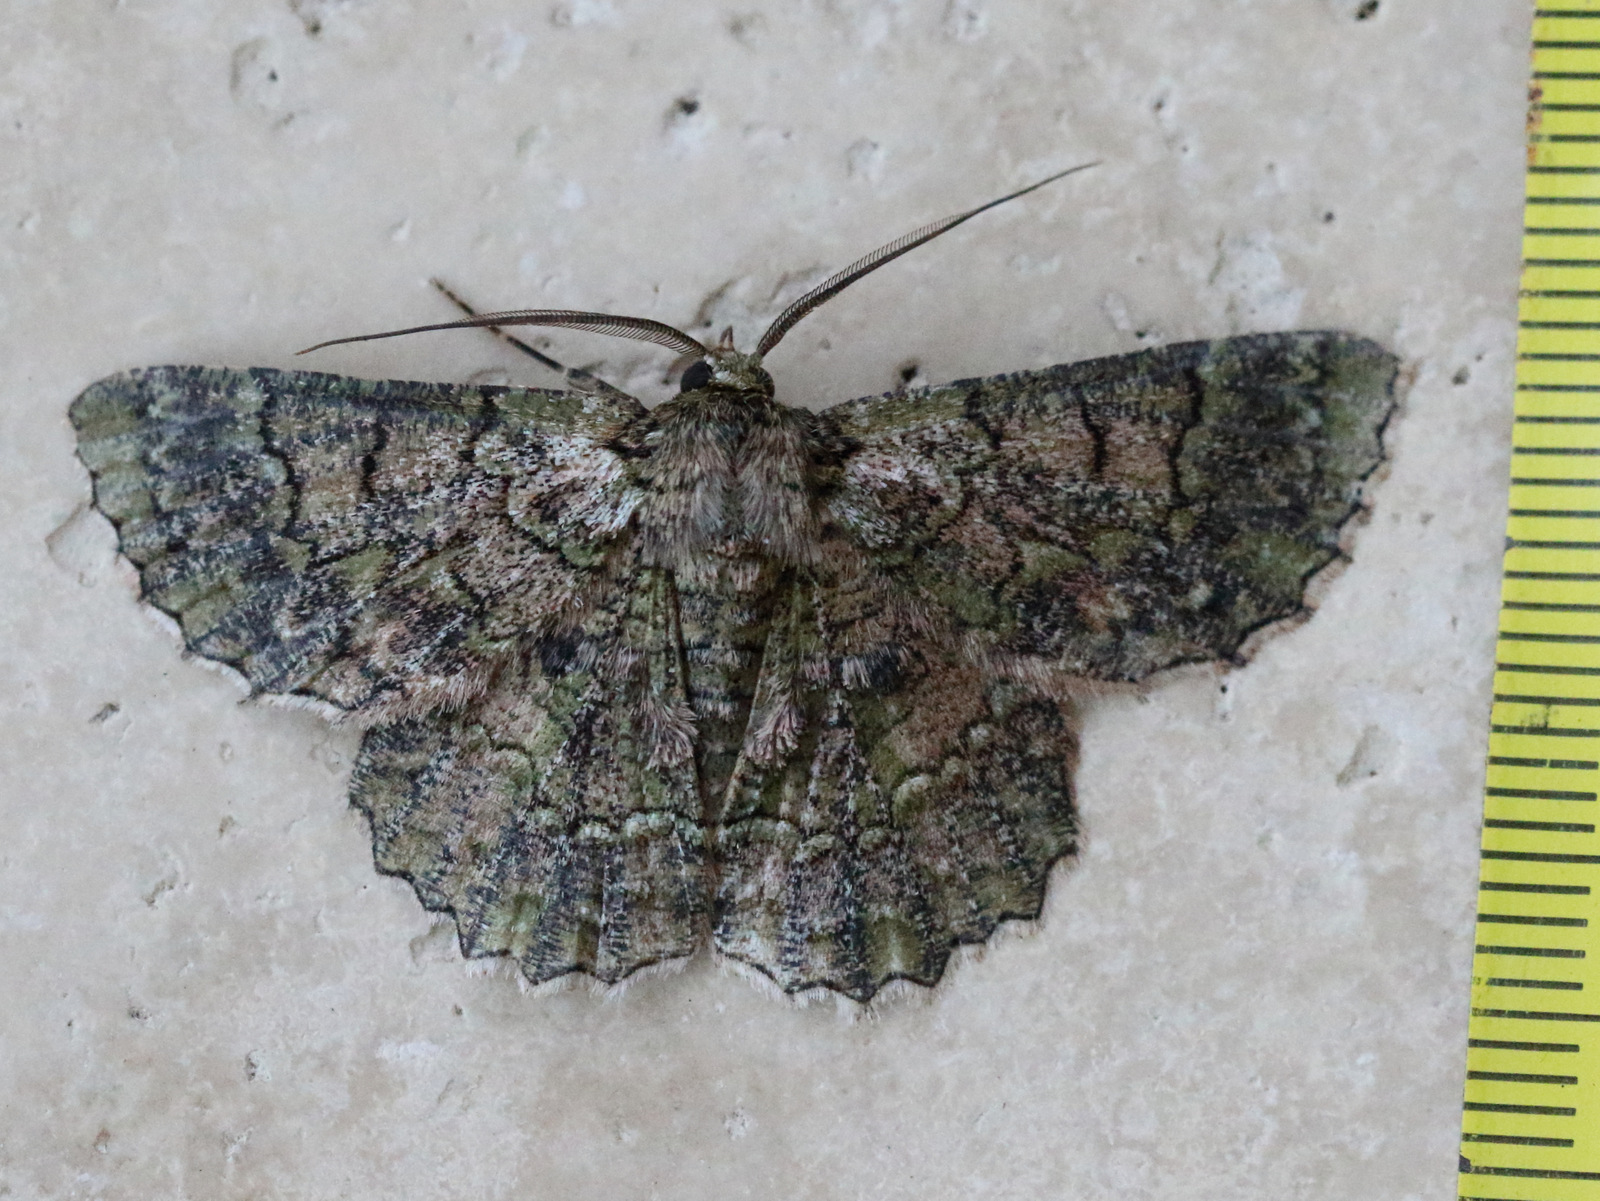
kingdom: Animalia
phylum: Arthropoda
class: Insecta
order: Lepidoptera
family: Geometridae
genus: Hypodoxa
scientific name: Hypodoxa emiliaria
